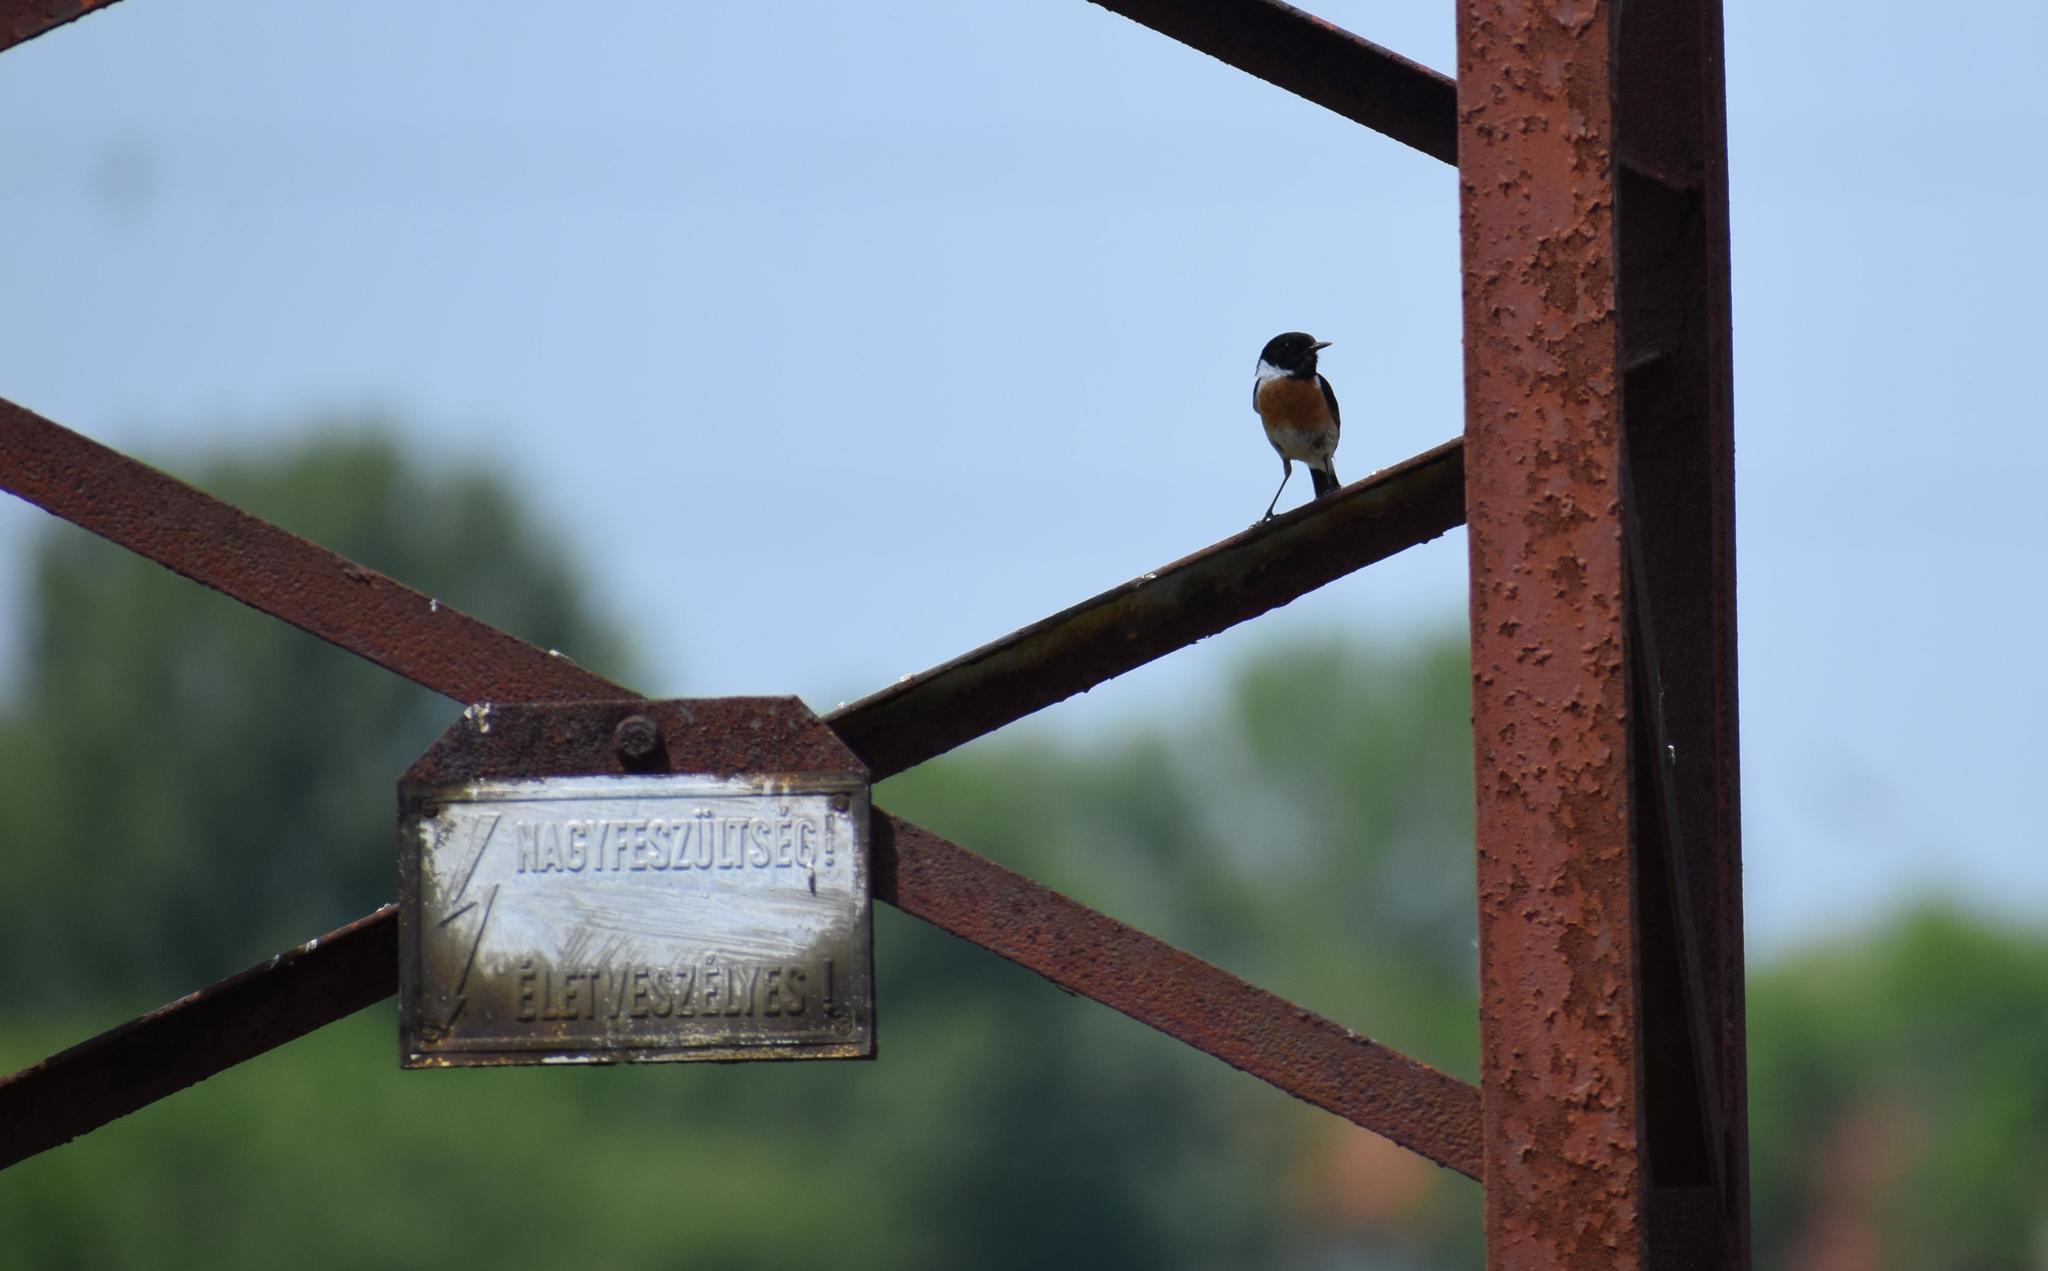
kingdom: Animalia
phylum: Chordata
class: Aves
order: Passeriformes
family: Muscicapidae
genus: Saxicola
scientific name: Saxicola rubicola
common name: European stonechat
